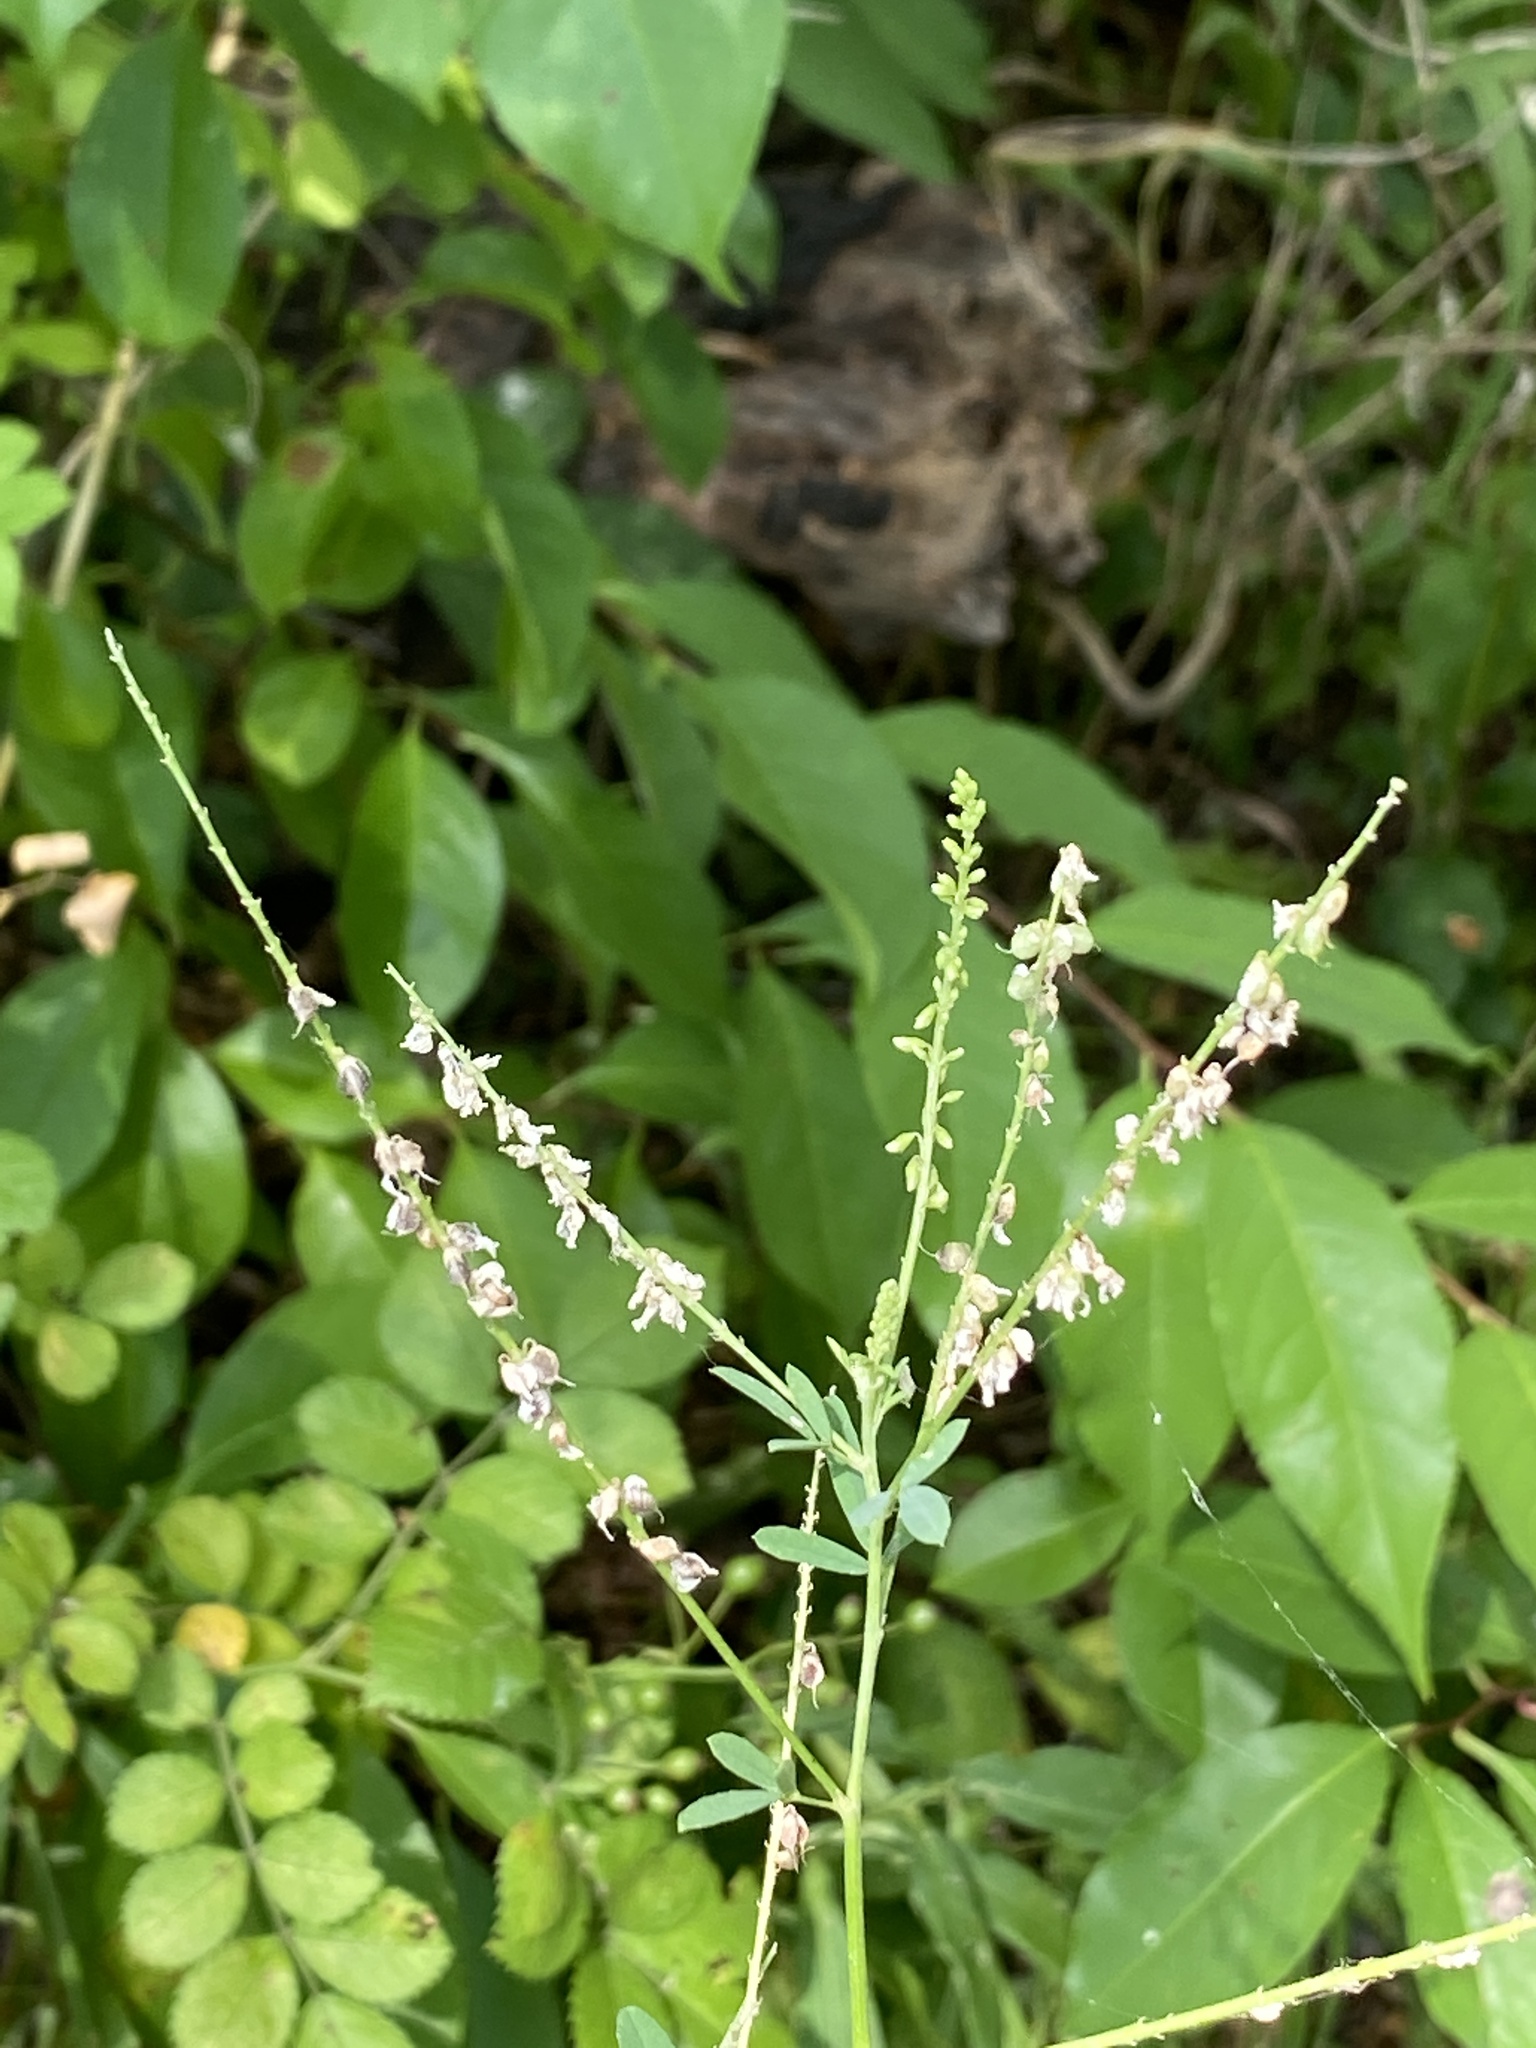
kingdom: Plantae
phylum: Tracheophyta
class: Magnoliopsida
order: Fabales
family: Fabaceae
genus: Melilotus
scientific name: Melilotus albus
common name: White melilot
